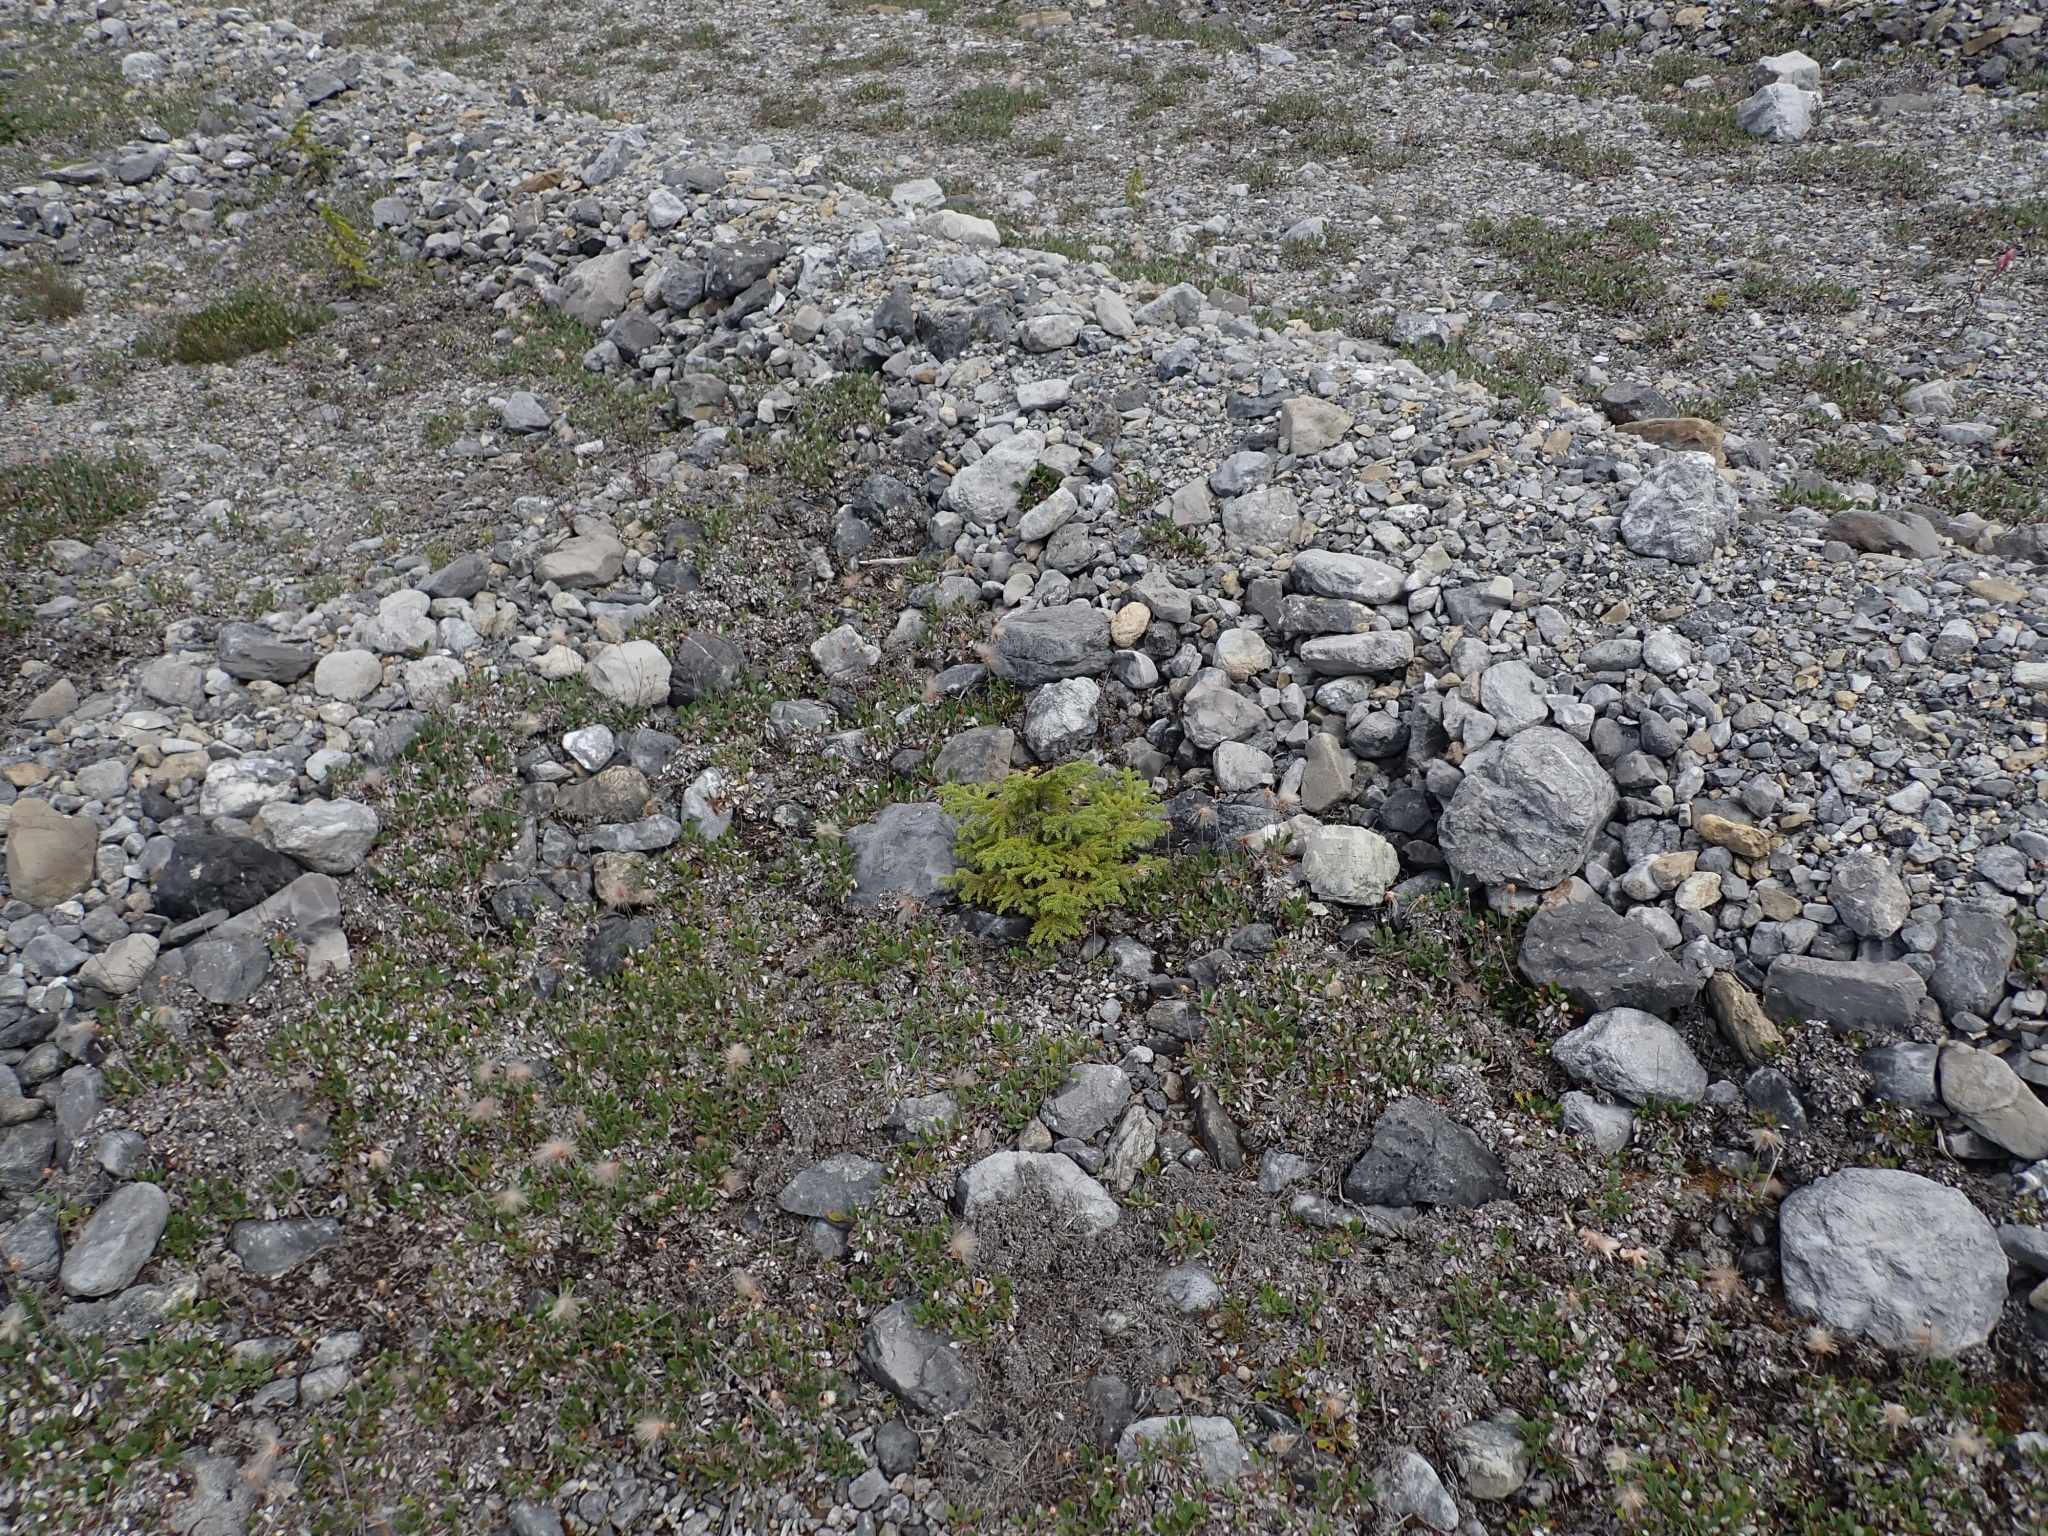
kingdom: Plantae
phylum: Tracheophyta
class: Pinopsida
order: Pinales
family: Pinaceae
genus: Picea
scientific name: Picea mariana
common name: Black spruce
